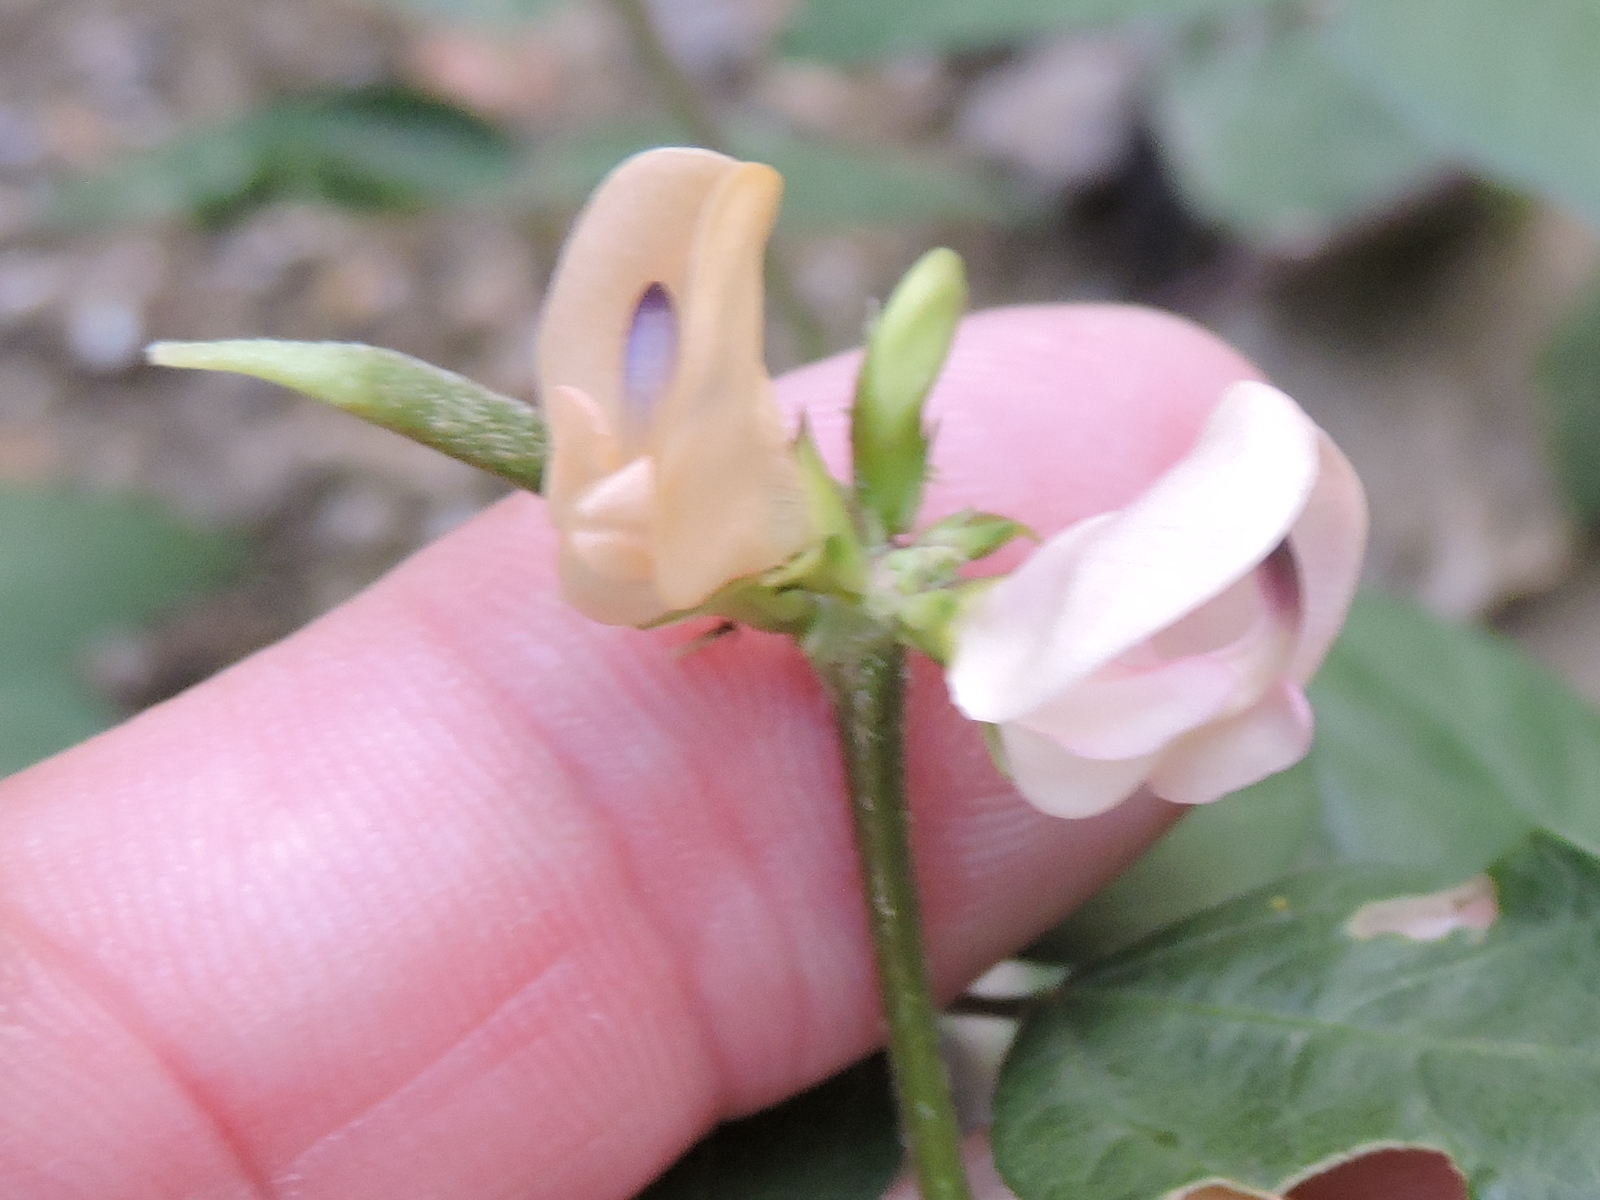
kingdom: Plantae
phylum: Tracheophyta
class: Magnoliopsida
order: Fabales
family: Fabaceae
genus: Strophostyles
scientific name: Strophostyles helvola
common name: Trailing wild bean
